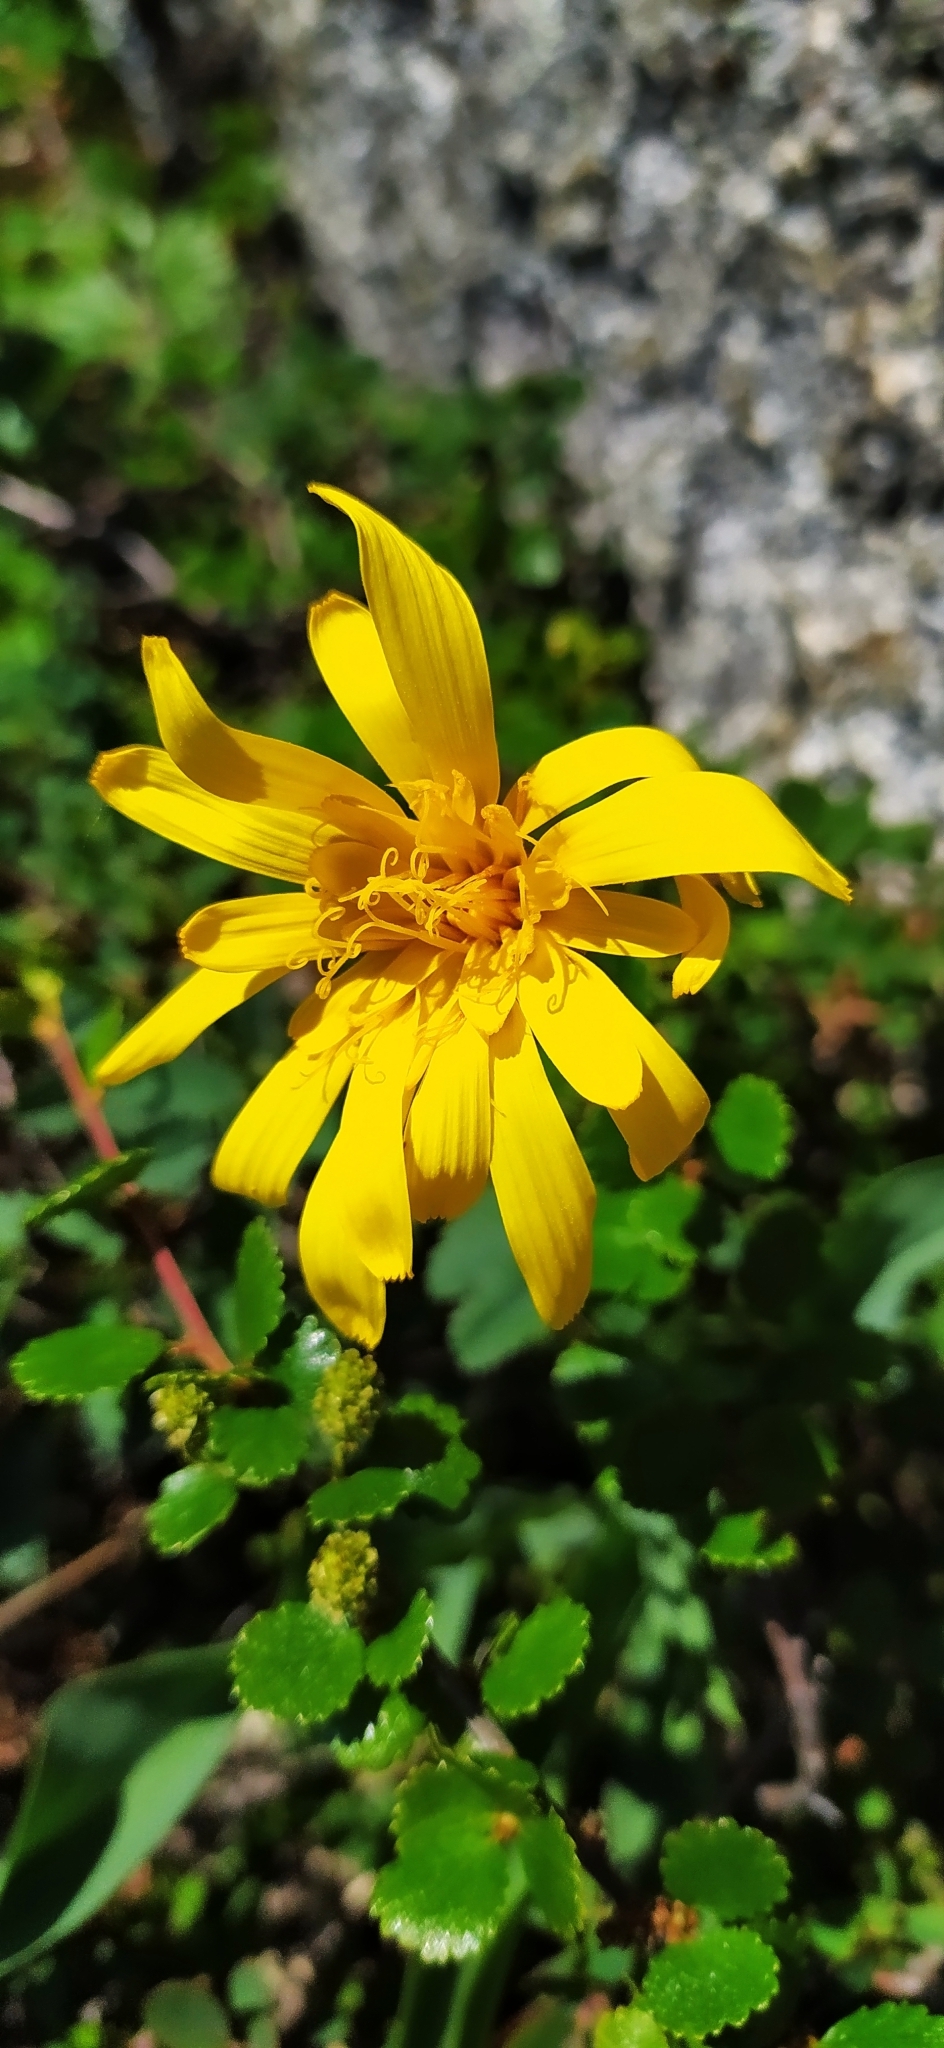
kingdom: Plantae
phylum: Tracheophyta
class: Magnoliopsida
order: Asterales
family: Asteraceae
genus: Scorzonera
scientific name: Scorzonera glabra
